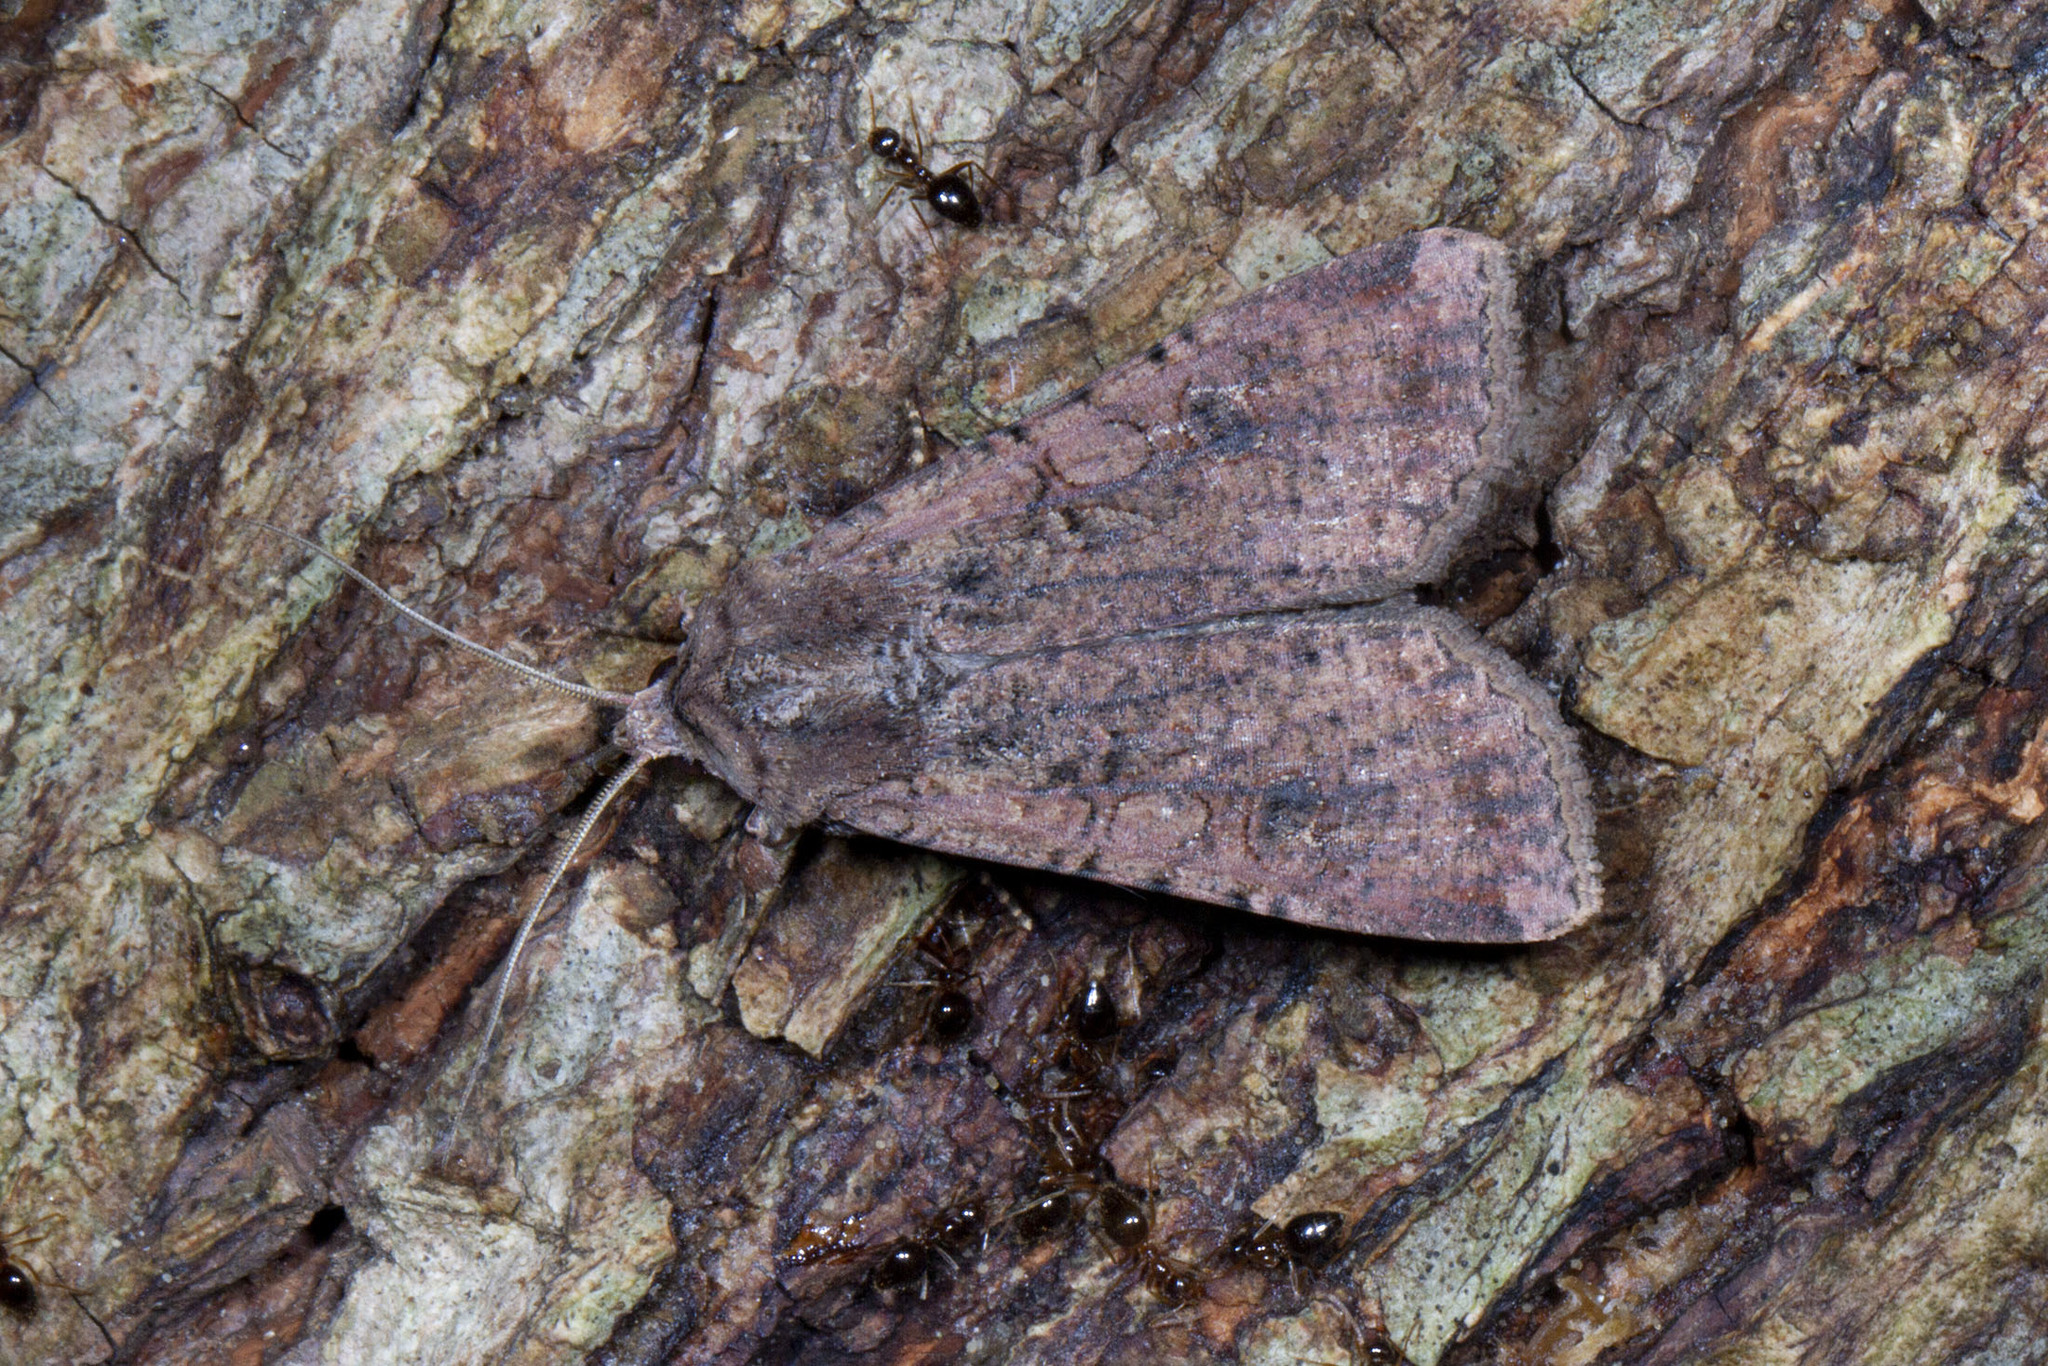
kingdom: Animalia
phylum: Arthropoda
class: Insecta
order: Lepidoptera
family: Noctuidae
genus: Peridroma
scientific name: Peridroma saucia
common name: Pearly underwing
